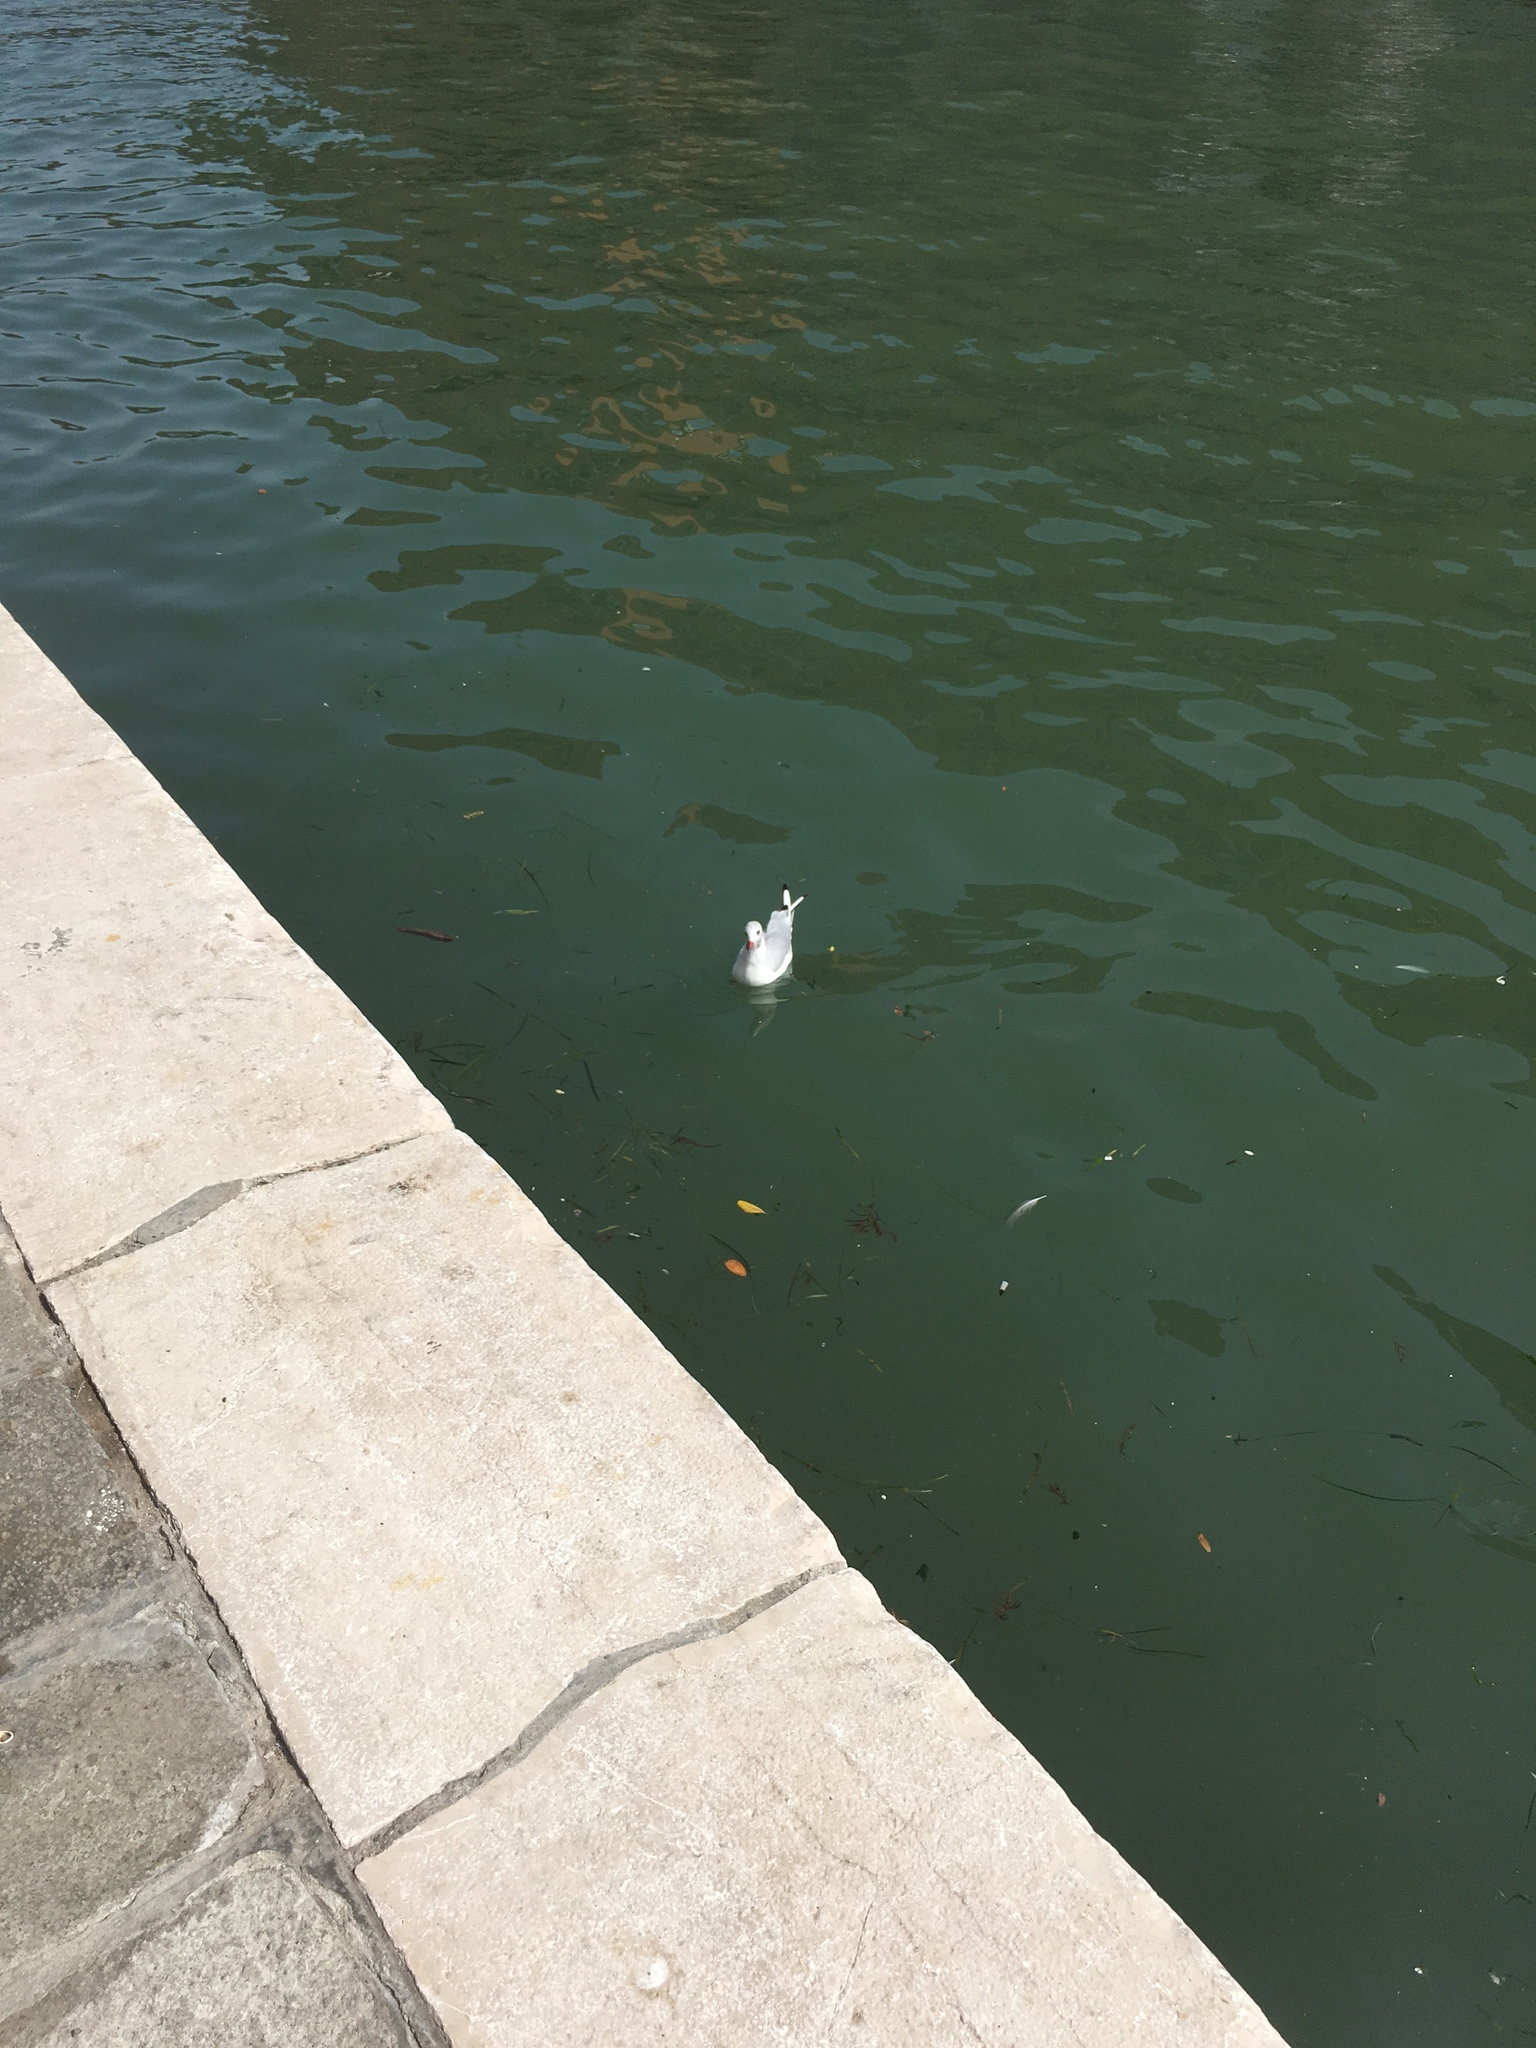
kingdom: Animalia
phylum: Chordata
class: Aves
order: Charadriiformes
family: Laridae
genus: Chroicocephalus
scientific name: Chroicocephalus ridibundus
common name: Black-headed gull
